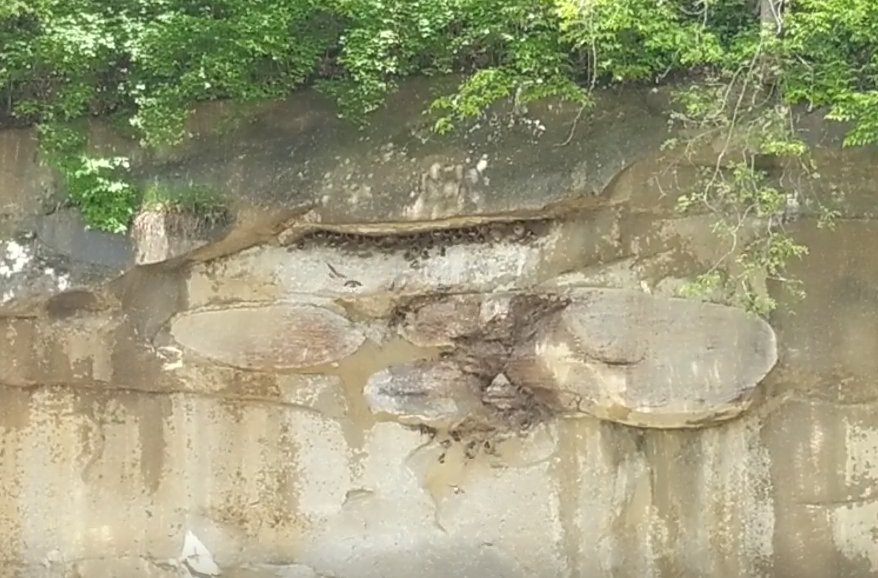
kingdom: Animalia
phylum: Chordata
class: Aves
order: Passeriformes
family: Hirundinidae
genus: Petrochelidon
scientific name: Petrochelidon pyrrhonota
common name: American cliff swallow
